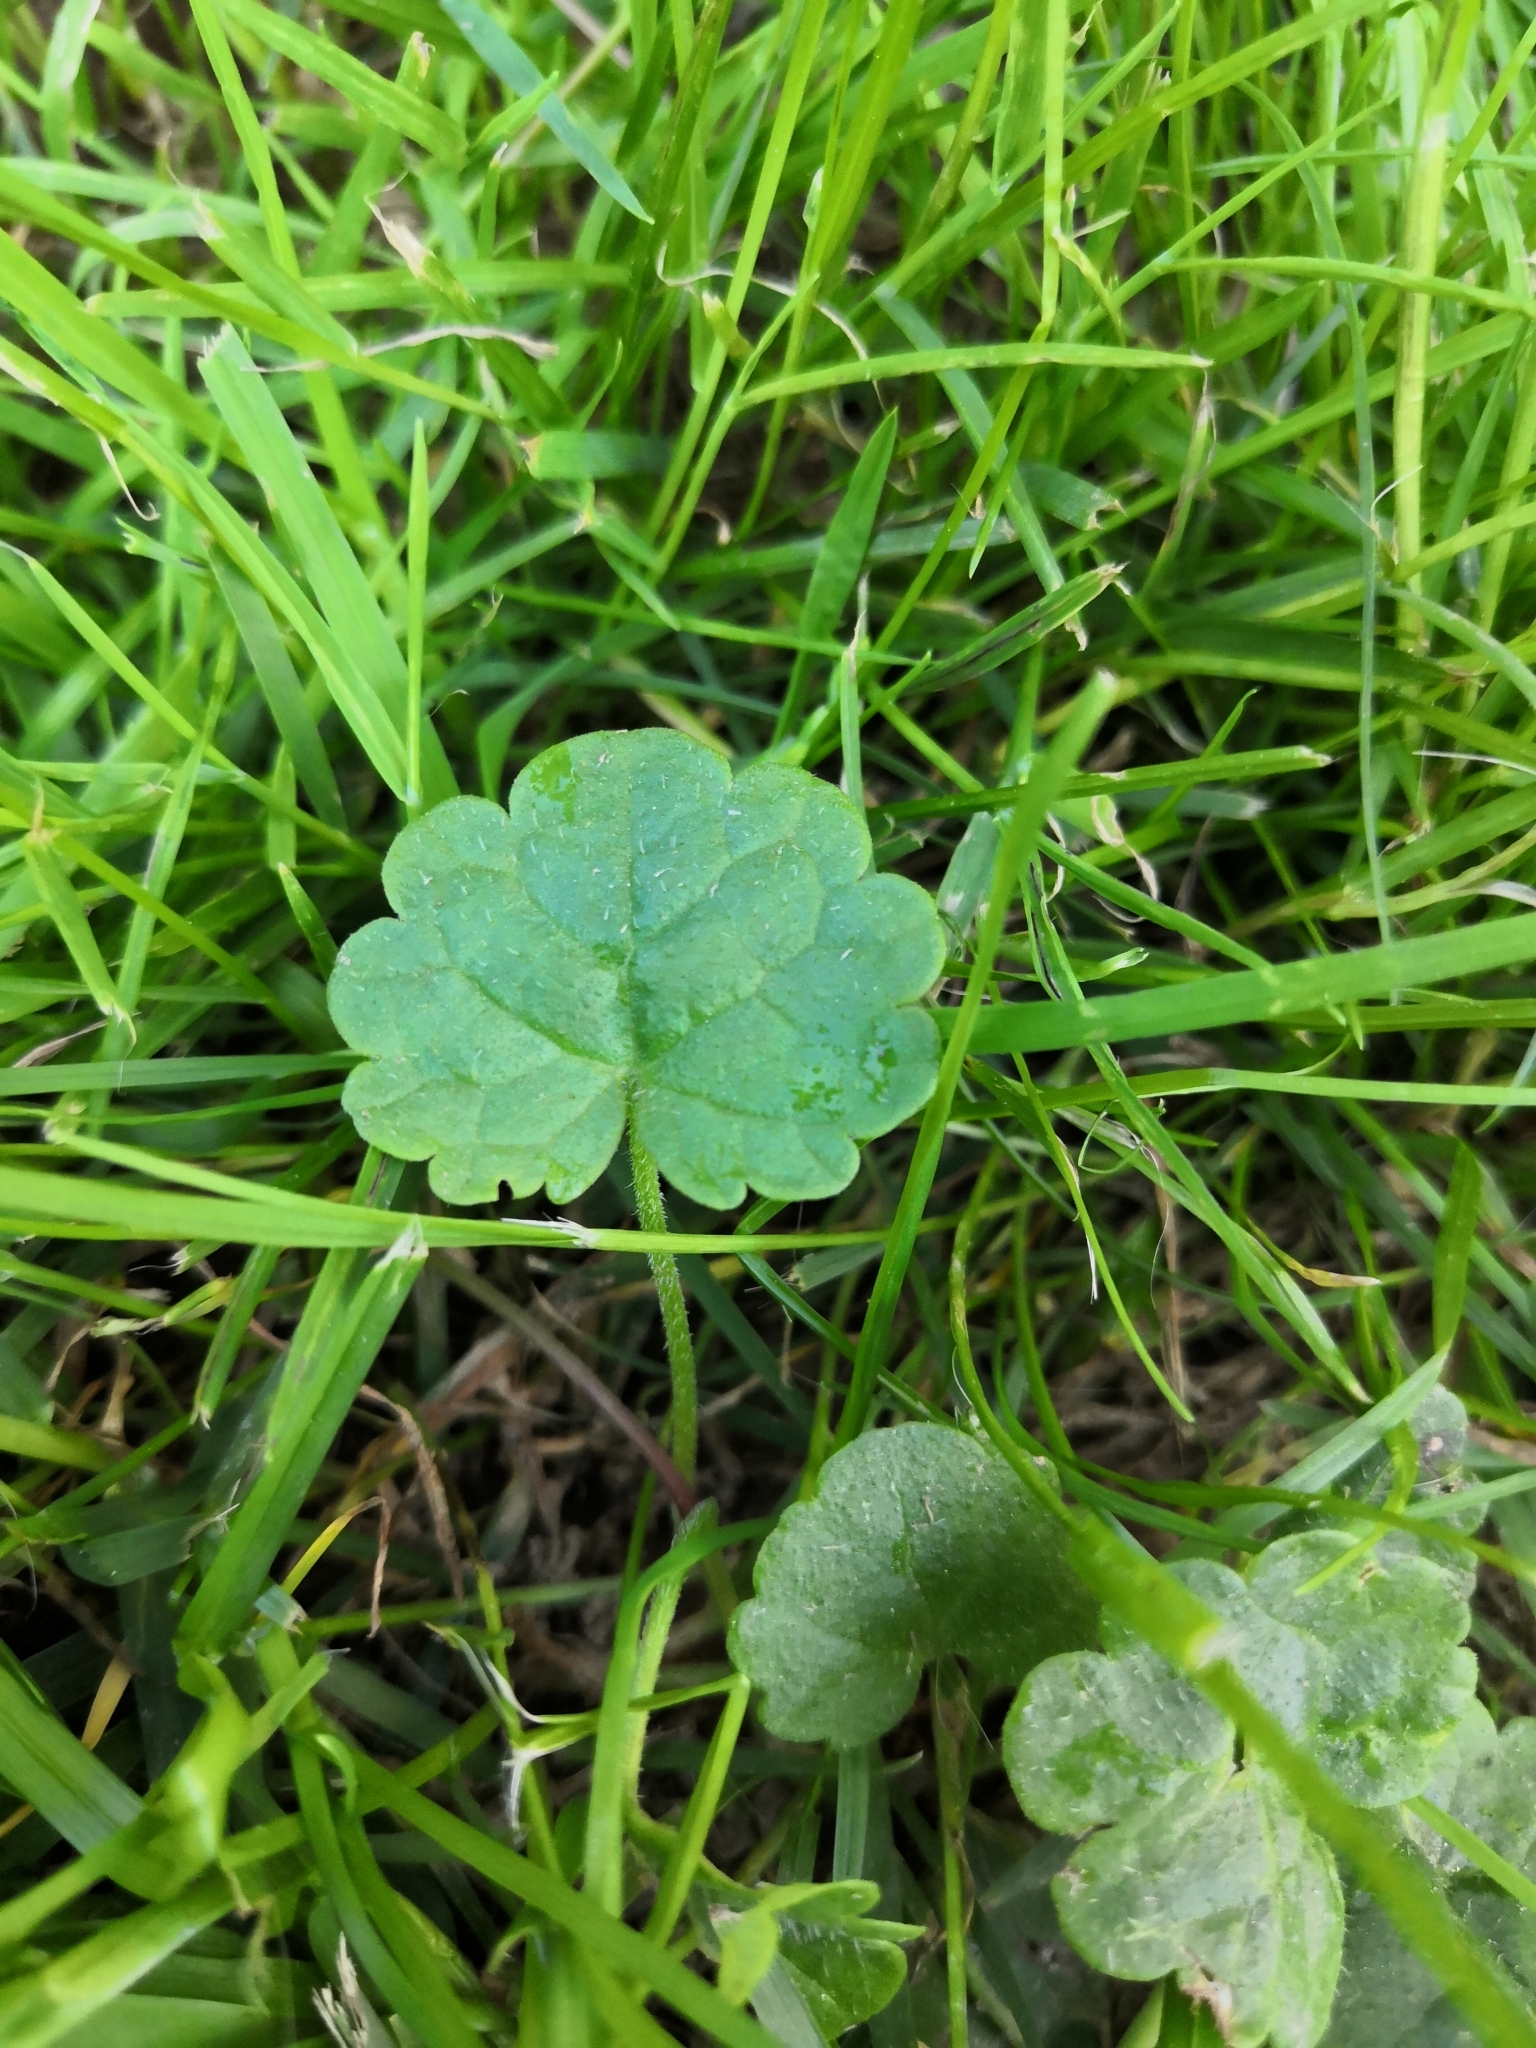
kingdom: Plantae
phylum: Tracheophyta
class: Magnoliopsida
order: Lamiales
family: Lamiaceae
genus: Glechoma
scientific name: Glechoma hederacea
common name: Ground ivy
